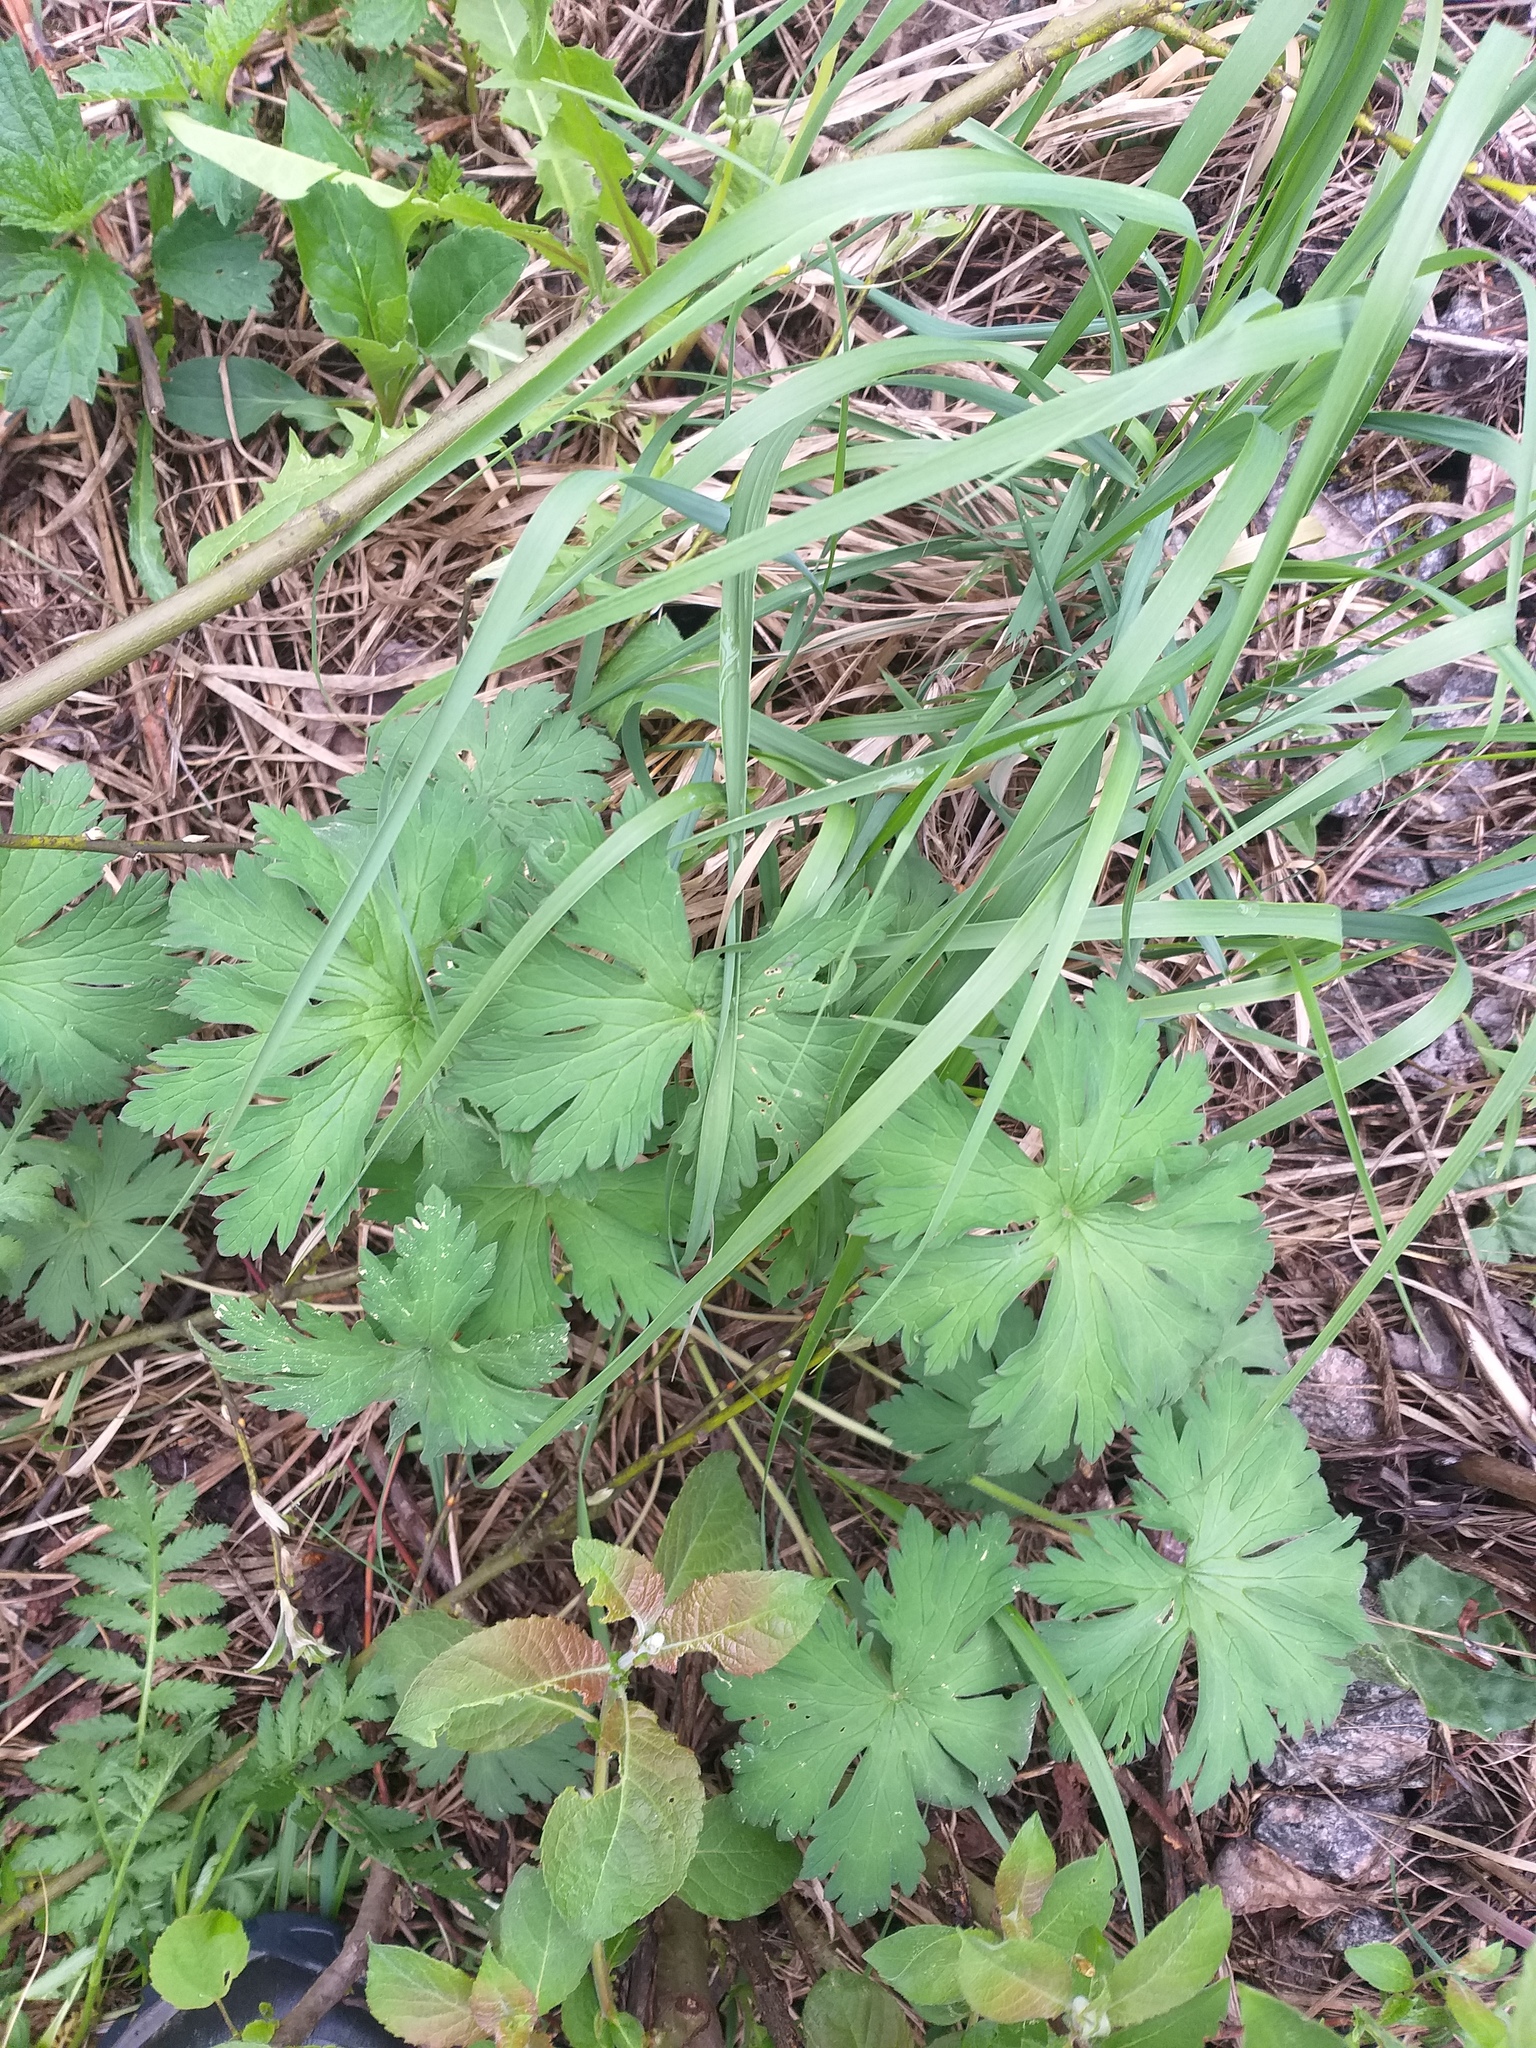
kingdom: Plantae
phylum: Tracheophyta
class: Magnoliopsida
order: Geraniales
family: Geraniaceae
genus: Geranium
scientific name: Geranium pratense
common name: Meadow crane's-bill
